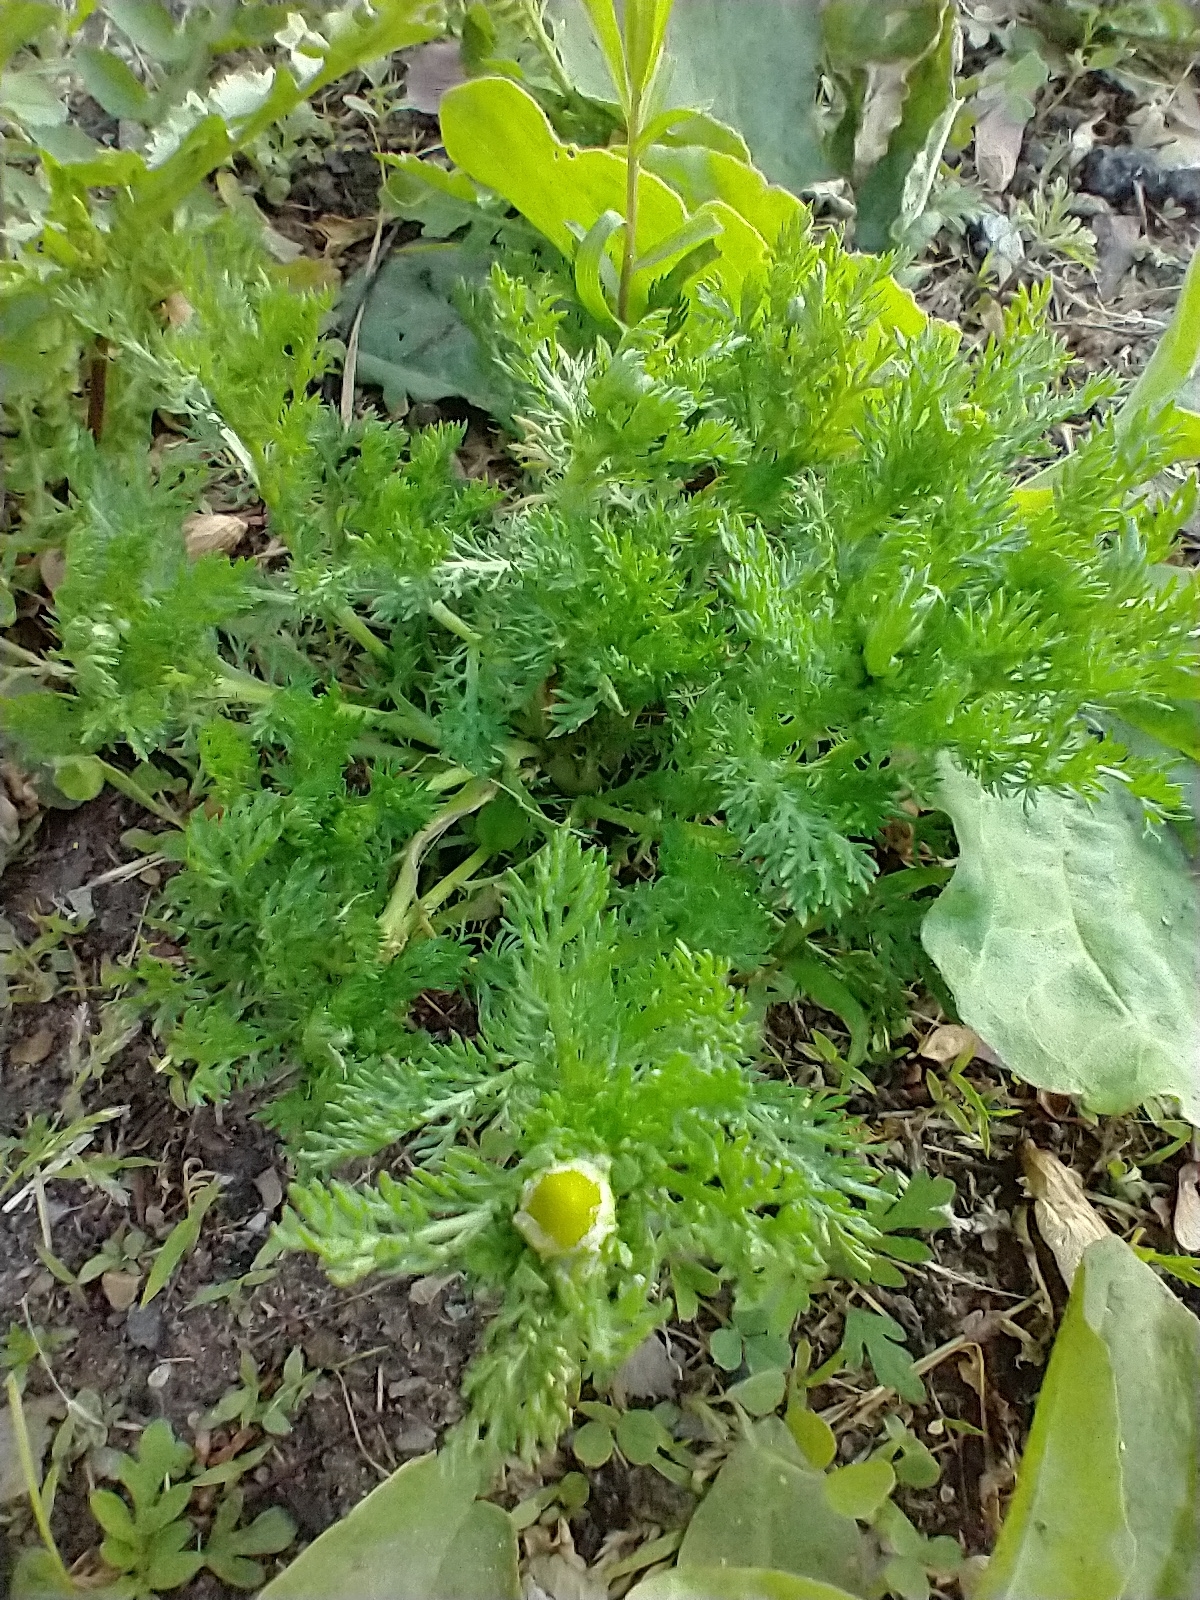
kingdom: Plantae
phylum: Tracheophyta
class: Magnoliopsida
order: Asterales
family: Asteraceae
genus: Matricaria
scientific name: Matricaria discoidea
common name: Disc mayweed
